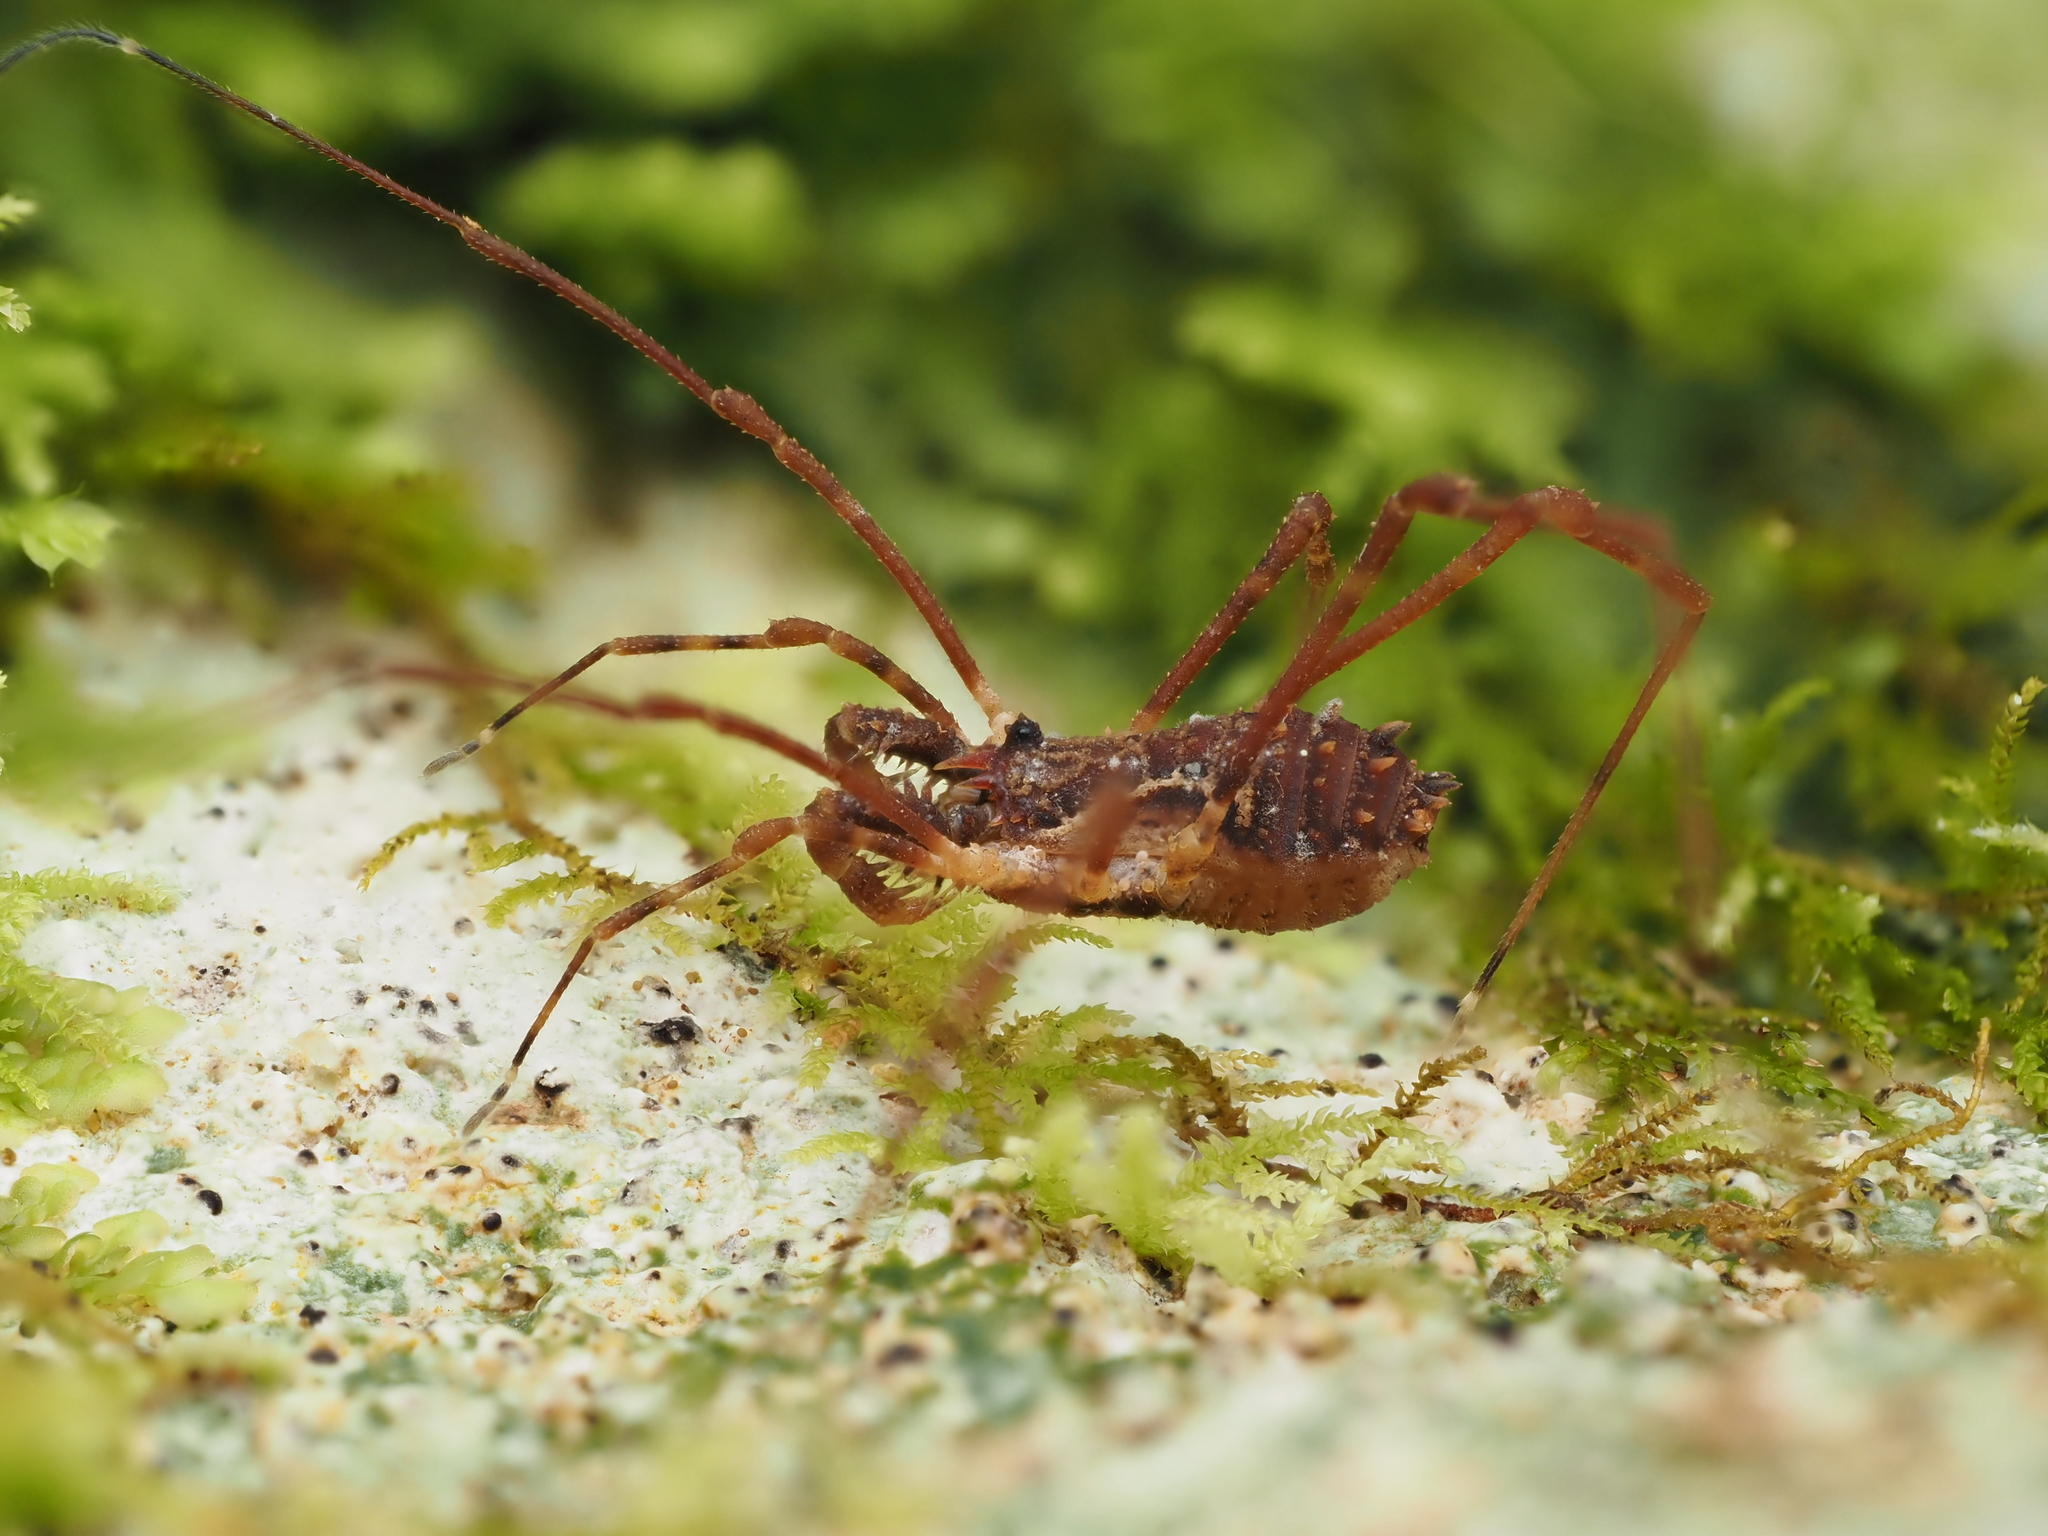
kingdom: Animalia
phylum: Arthropoda
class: Arachnida
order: Opiliones
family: Triaenonychidae
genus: Algidia
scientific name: Algidia chiltoni
